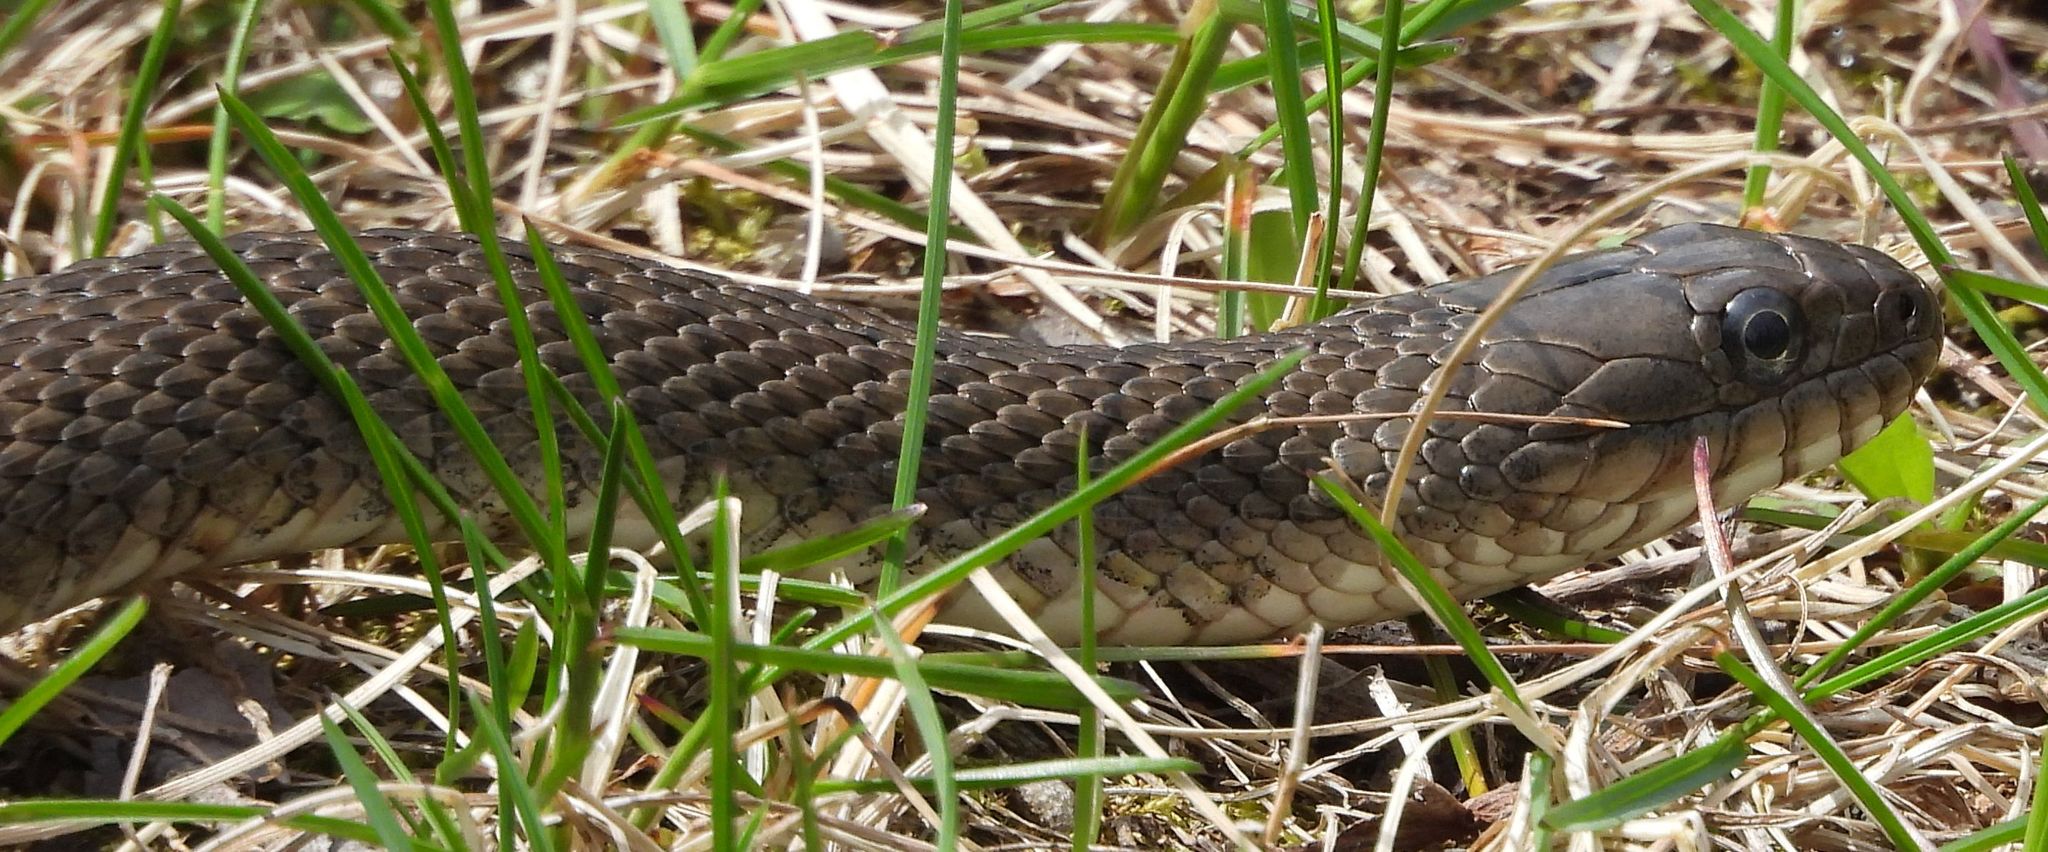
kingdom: Animalia
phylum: Chordata
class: Squamata
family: Colubridae
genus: Nerodia
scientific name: Nerodia sipedon
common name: Northern water snake
